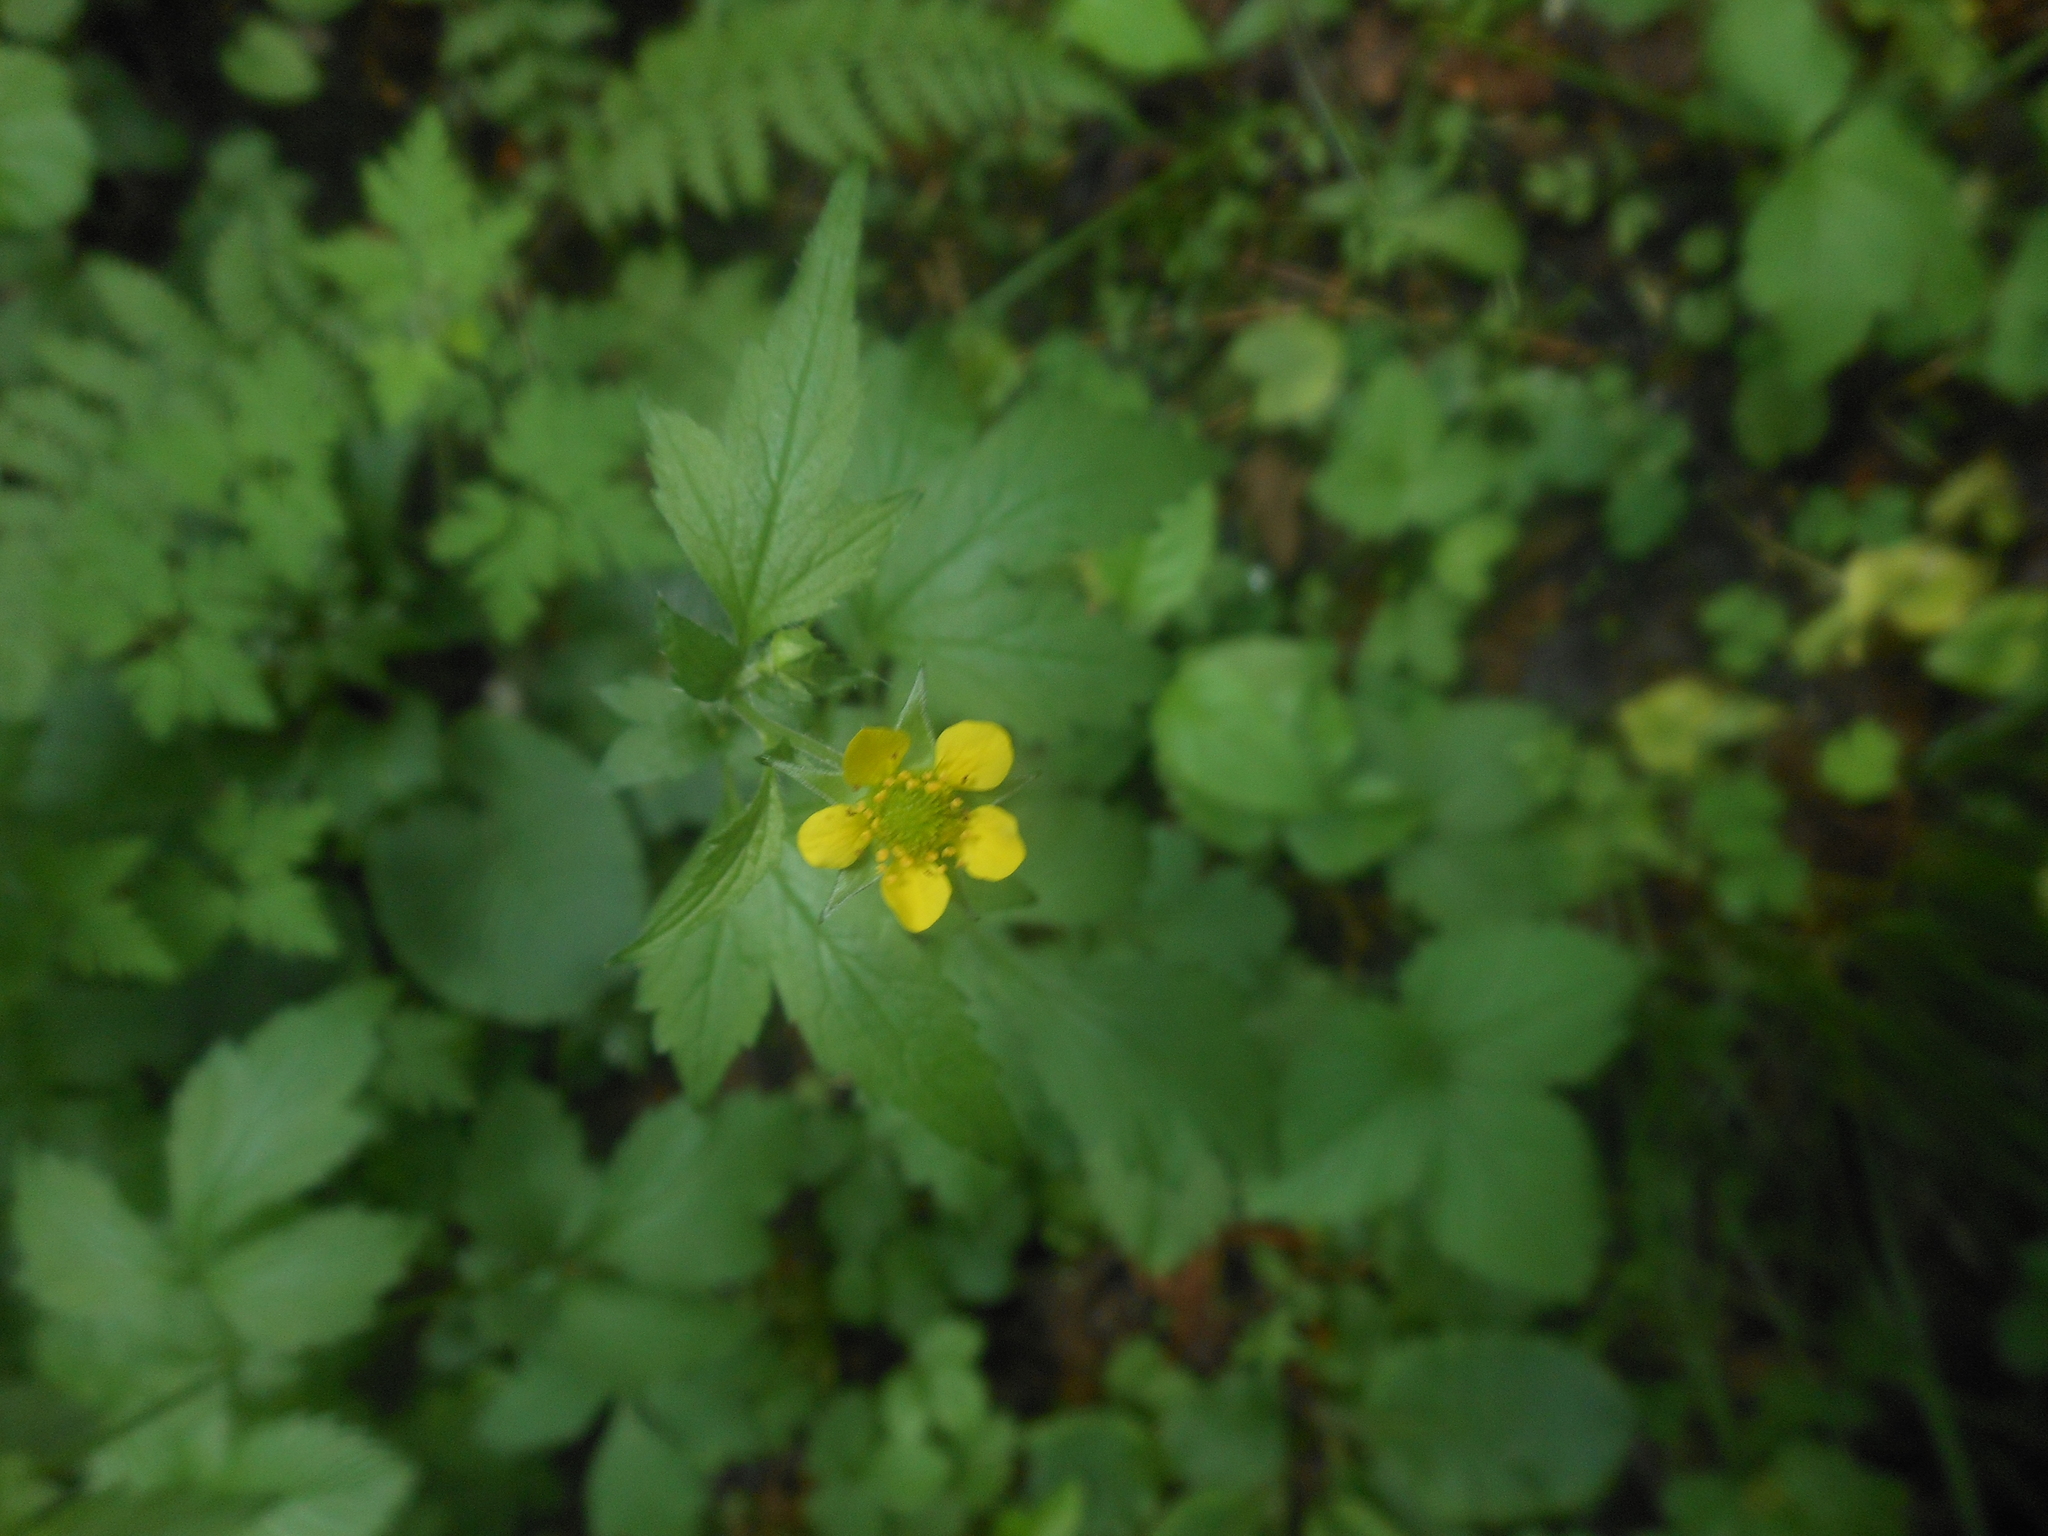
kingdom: Plantae
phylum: Tracheophyta
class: Magnoliopsida
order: Rosales
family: Rosaceae
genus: Geum
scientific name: Geum urbanum
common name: Wood avens
